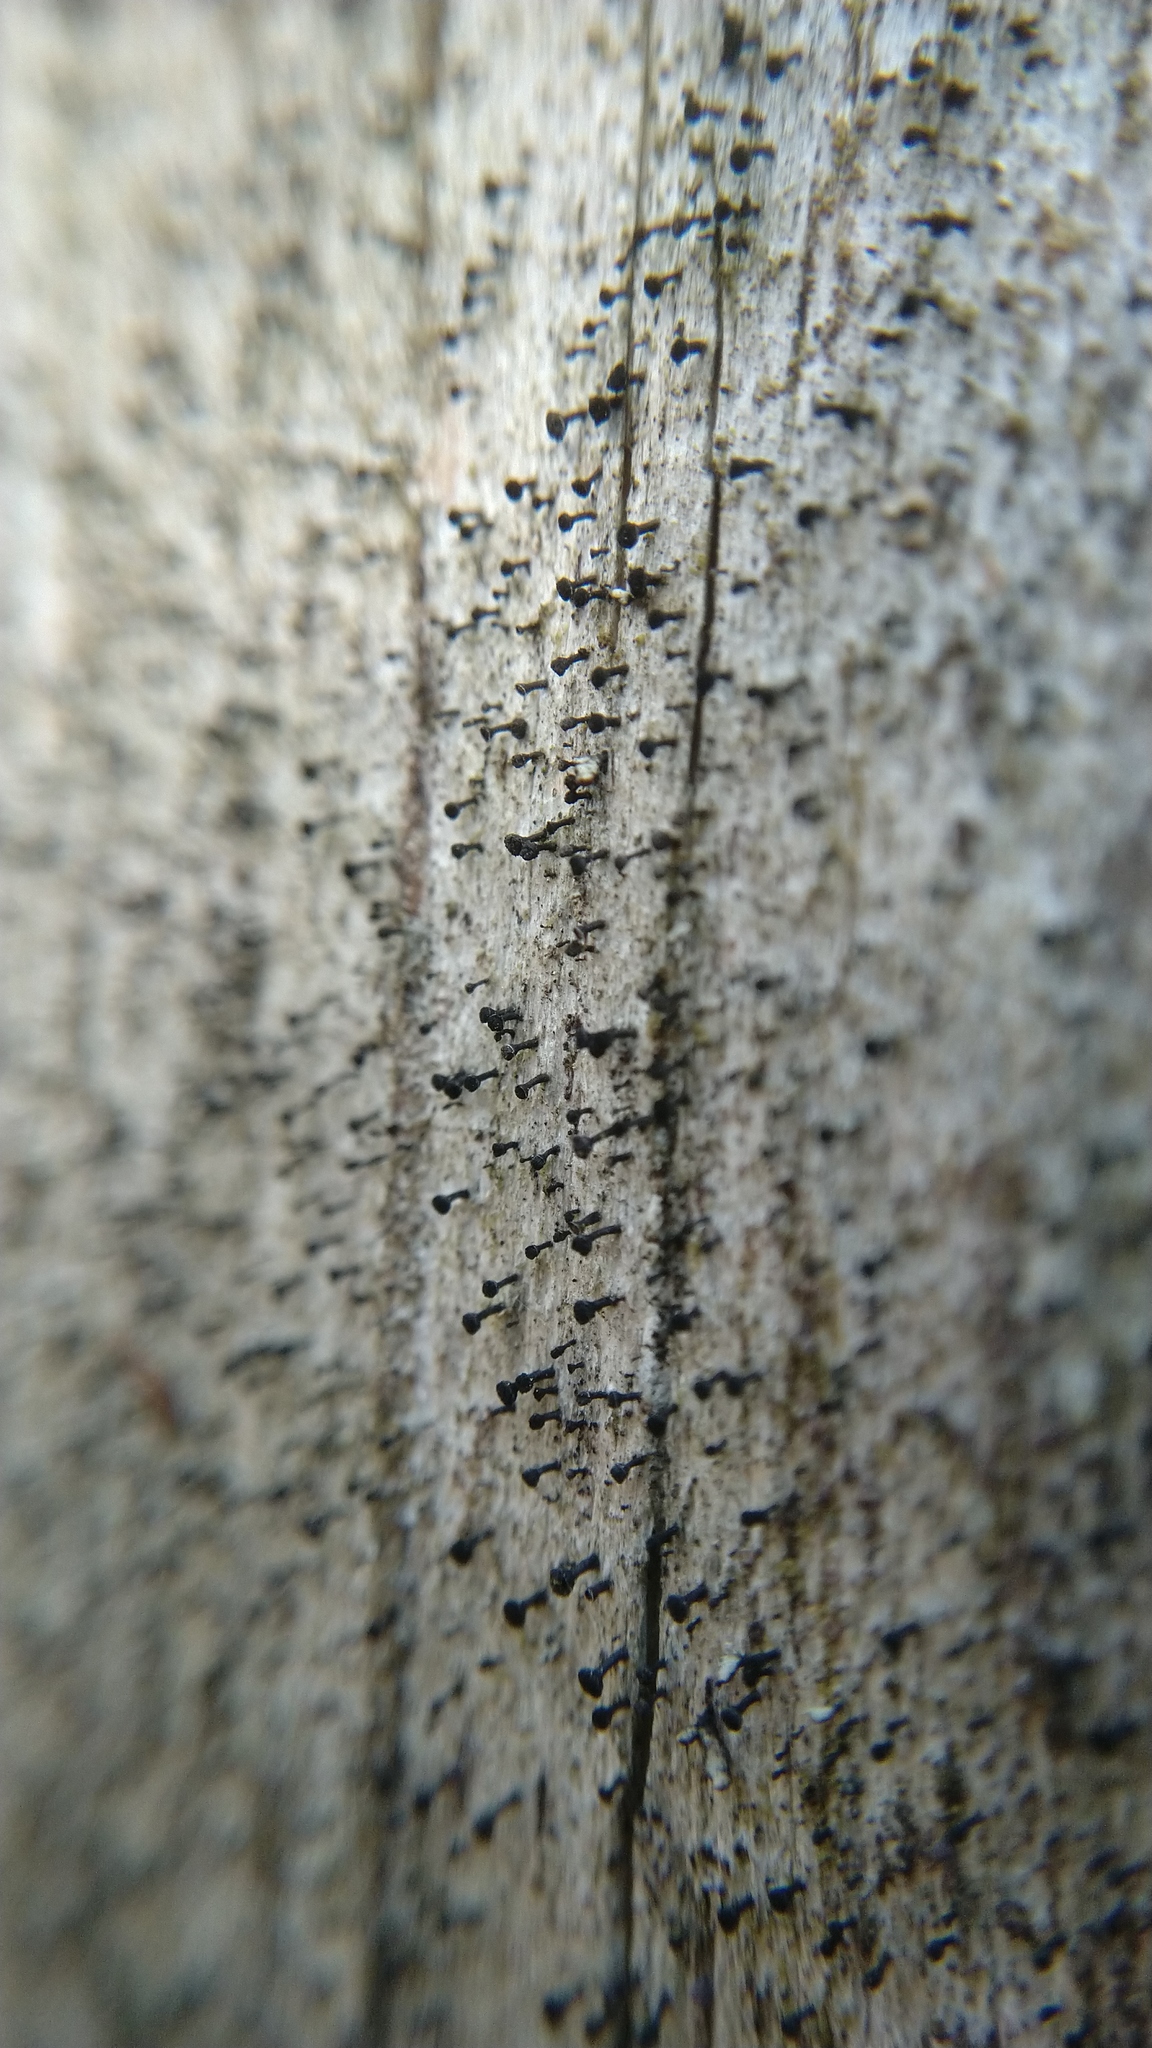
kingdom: Fungi
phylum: Ascomycota
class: Lecanoromycetes
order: Caliciales
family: Caliciaceae
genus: Calicium
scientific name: Calicium glaucellum
